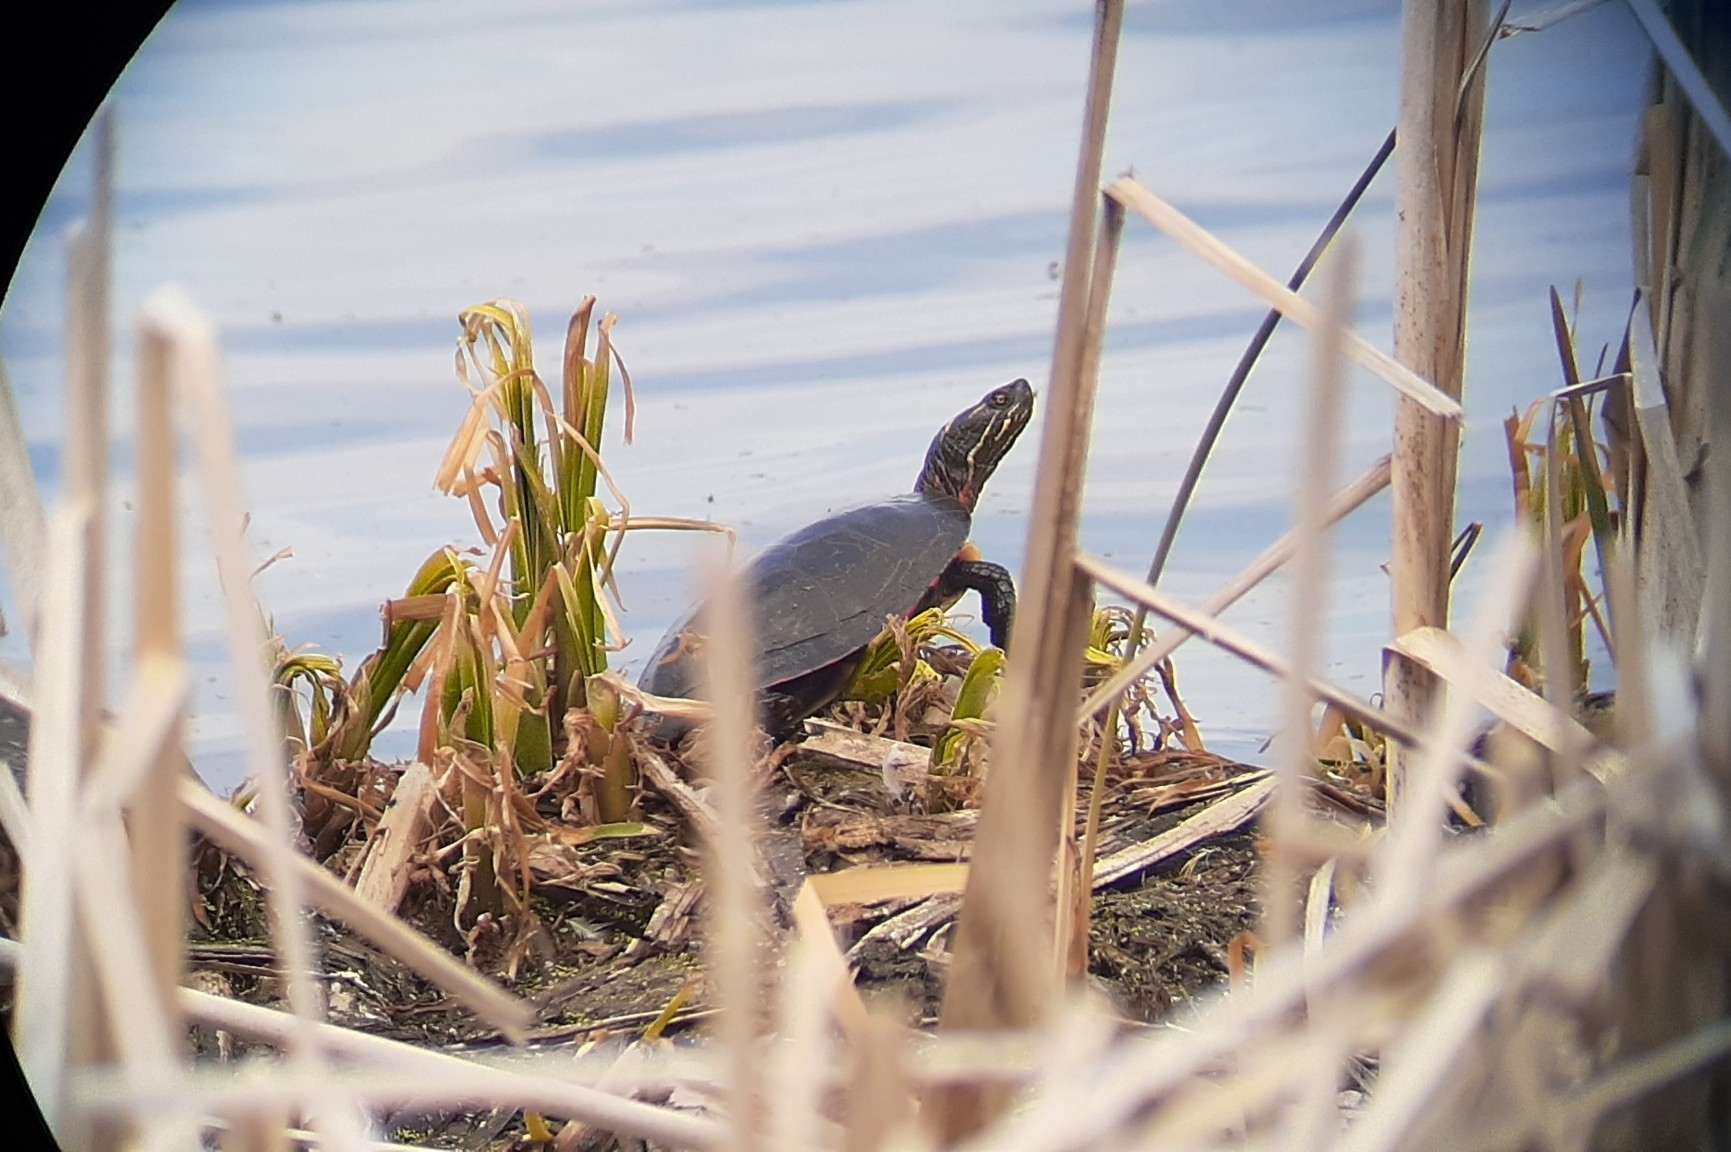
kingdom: Animalia
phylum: Chordata
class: Testudines
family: Emydidae
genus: Chrysemys
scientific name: Chrysemys picta
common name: Painted turtle
